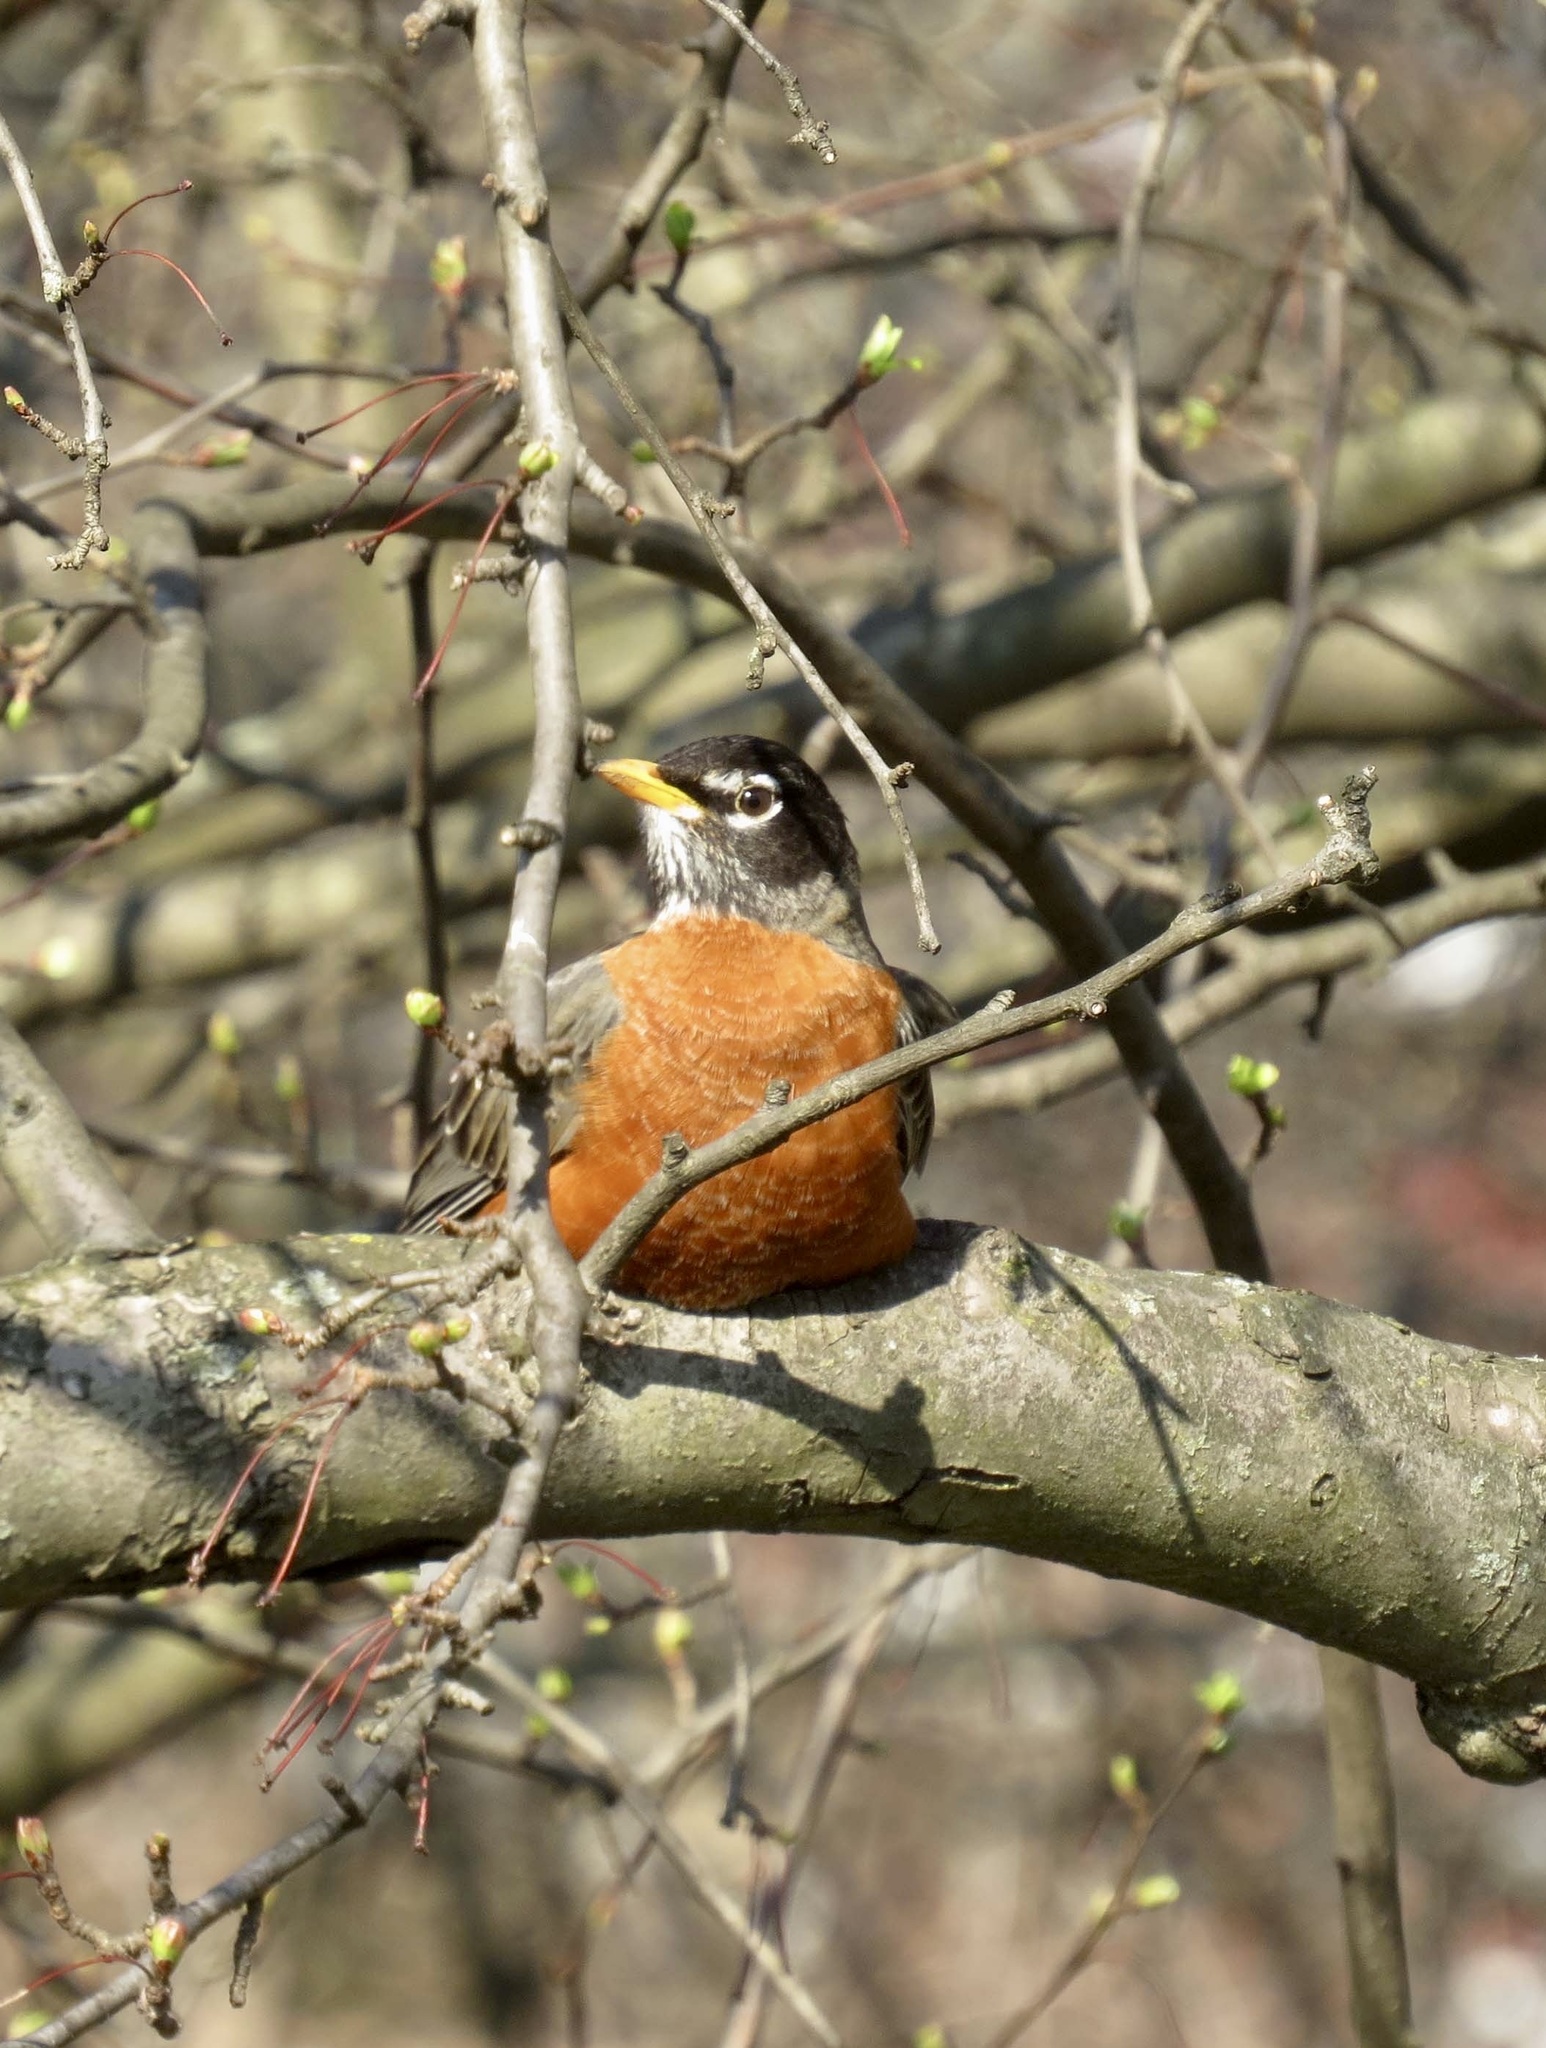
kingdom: Animalia
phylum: Chordata
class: Aves
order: Passeriformes
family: Turdidae
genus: Turdus
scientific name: Turdus migratorius
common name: American robin
